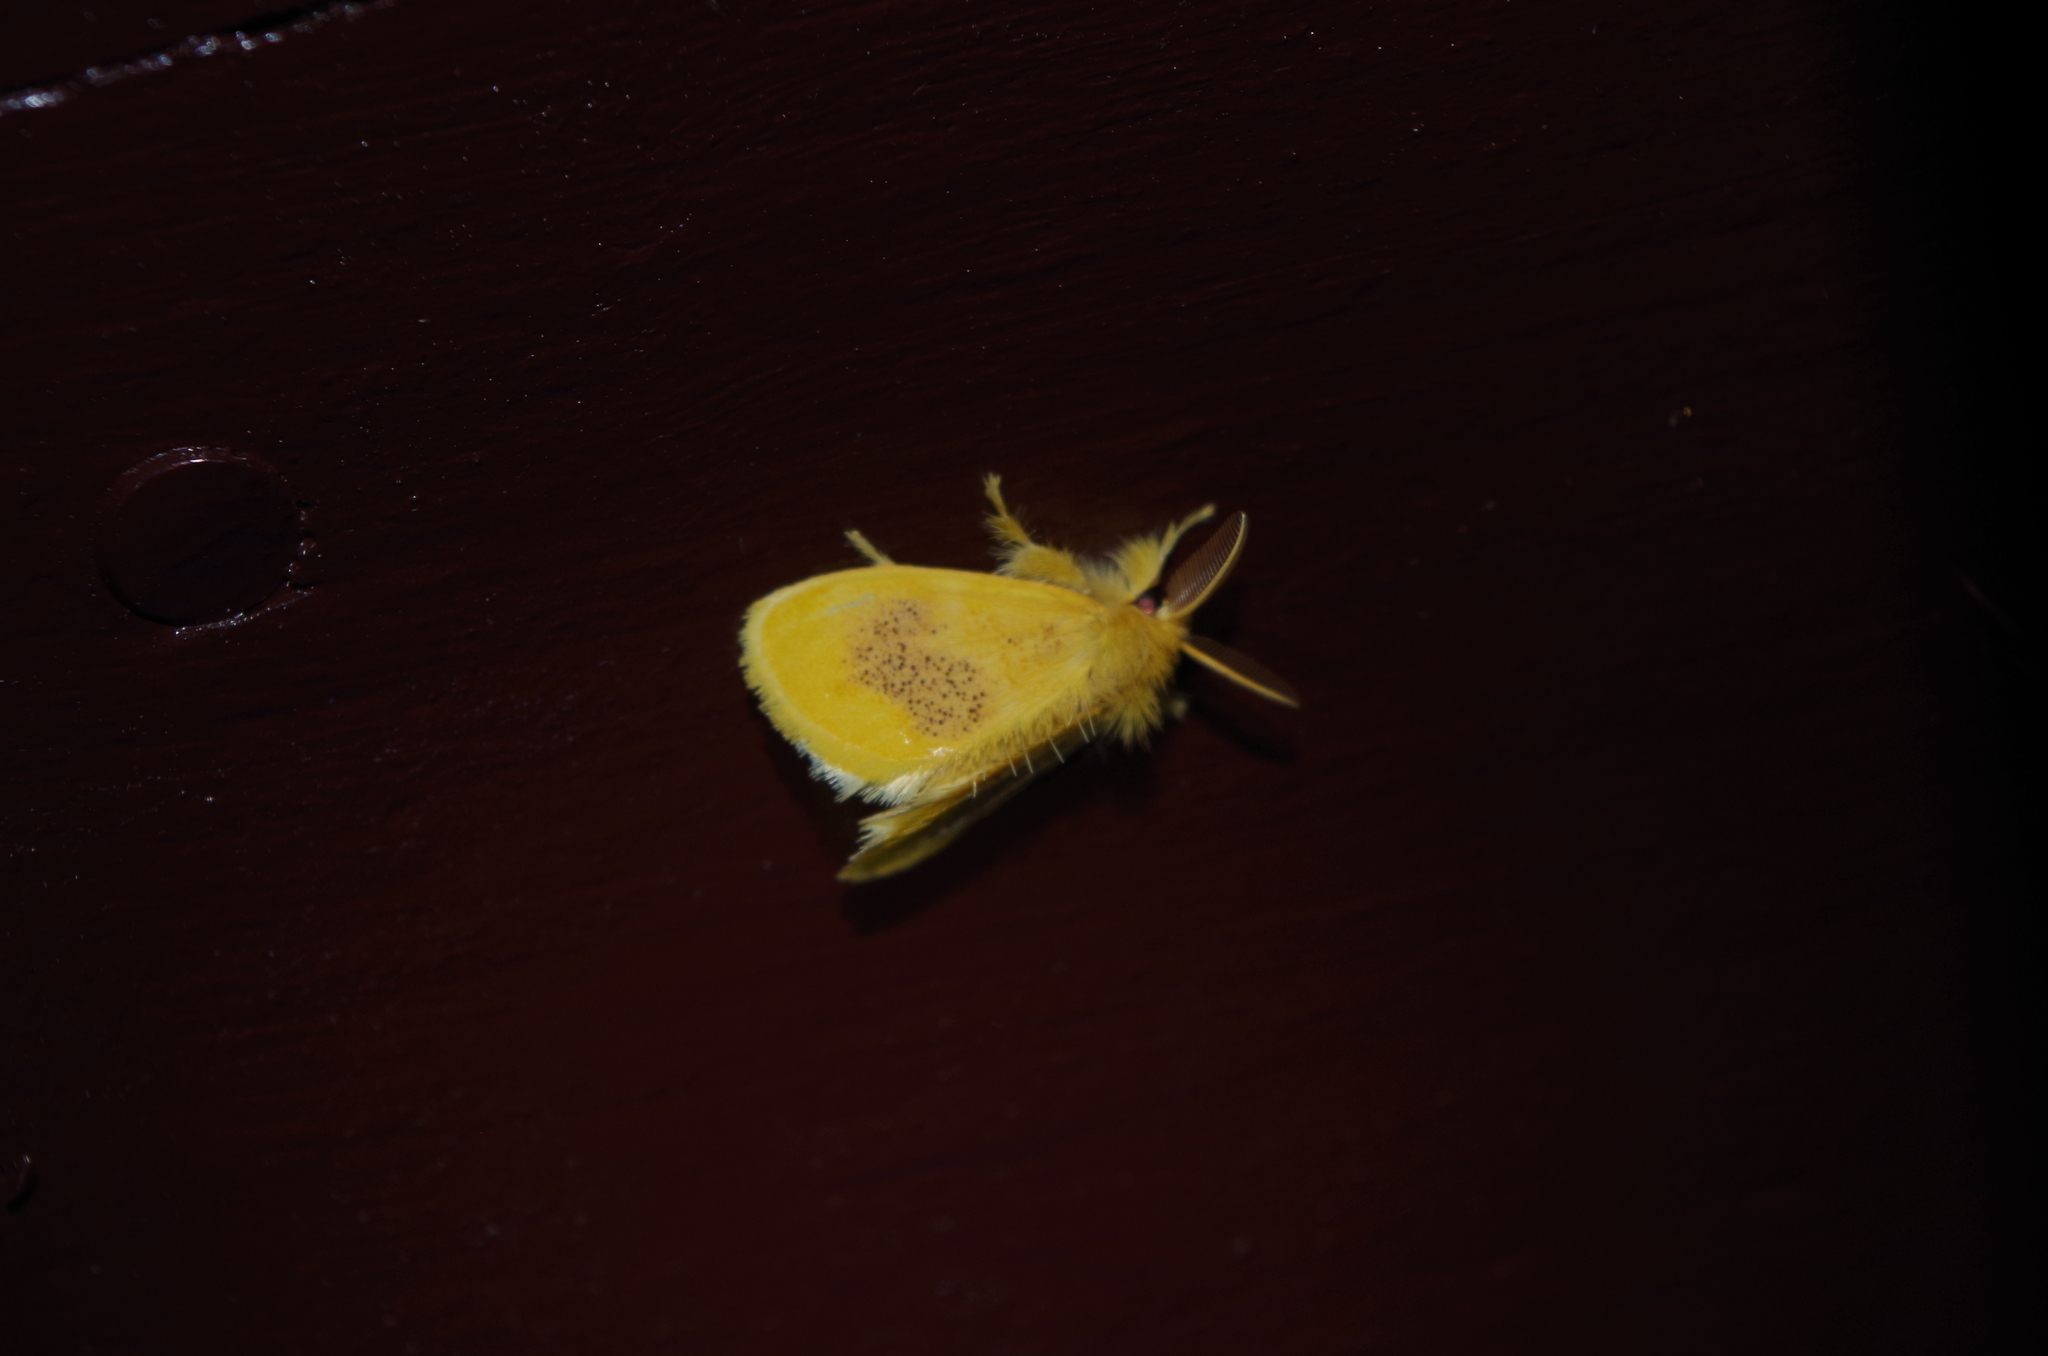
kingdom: Animalia
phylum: Arthropoda
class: Insecta
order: Lepidoptera
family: Erebidae
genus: Somena
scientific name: Somena
